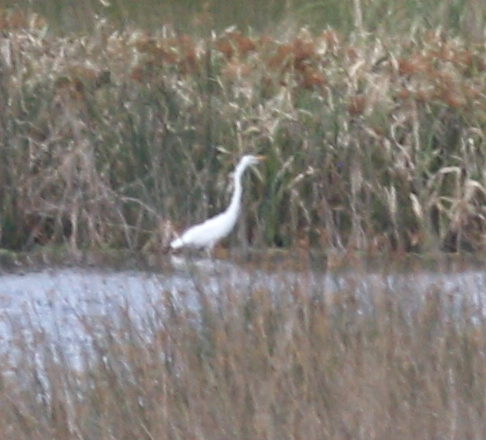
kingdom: Animalia
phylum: Chordata
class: Aves
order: Pelecaniformes
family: Ardeidae
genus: Ardea
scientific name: Ardea alba
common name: Great egret
